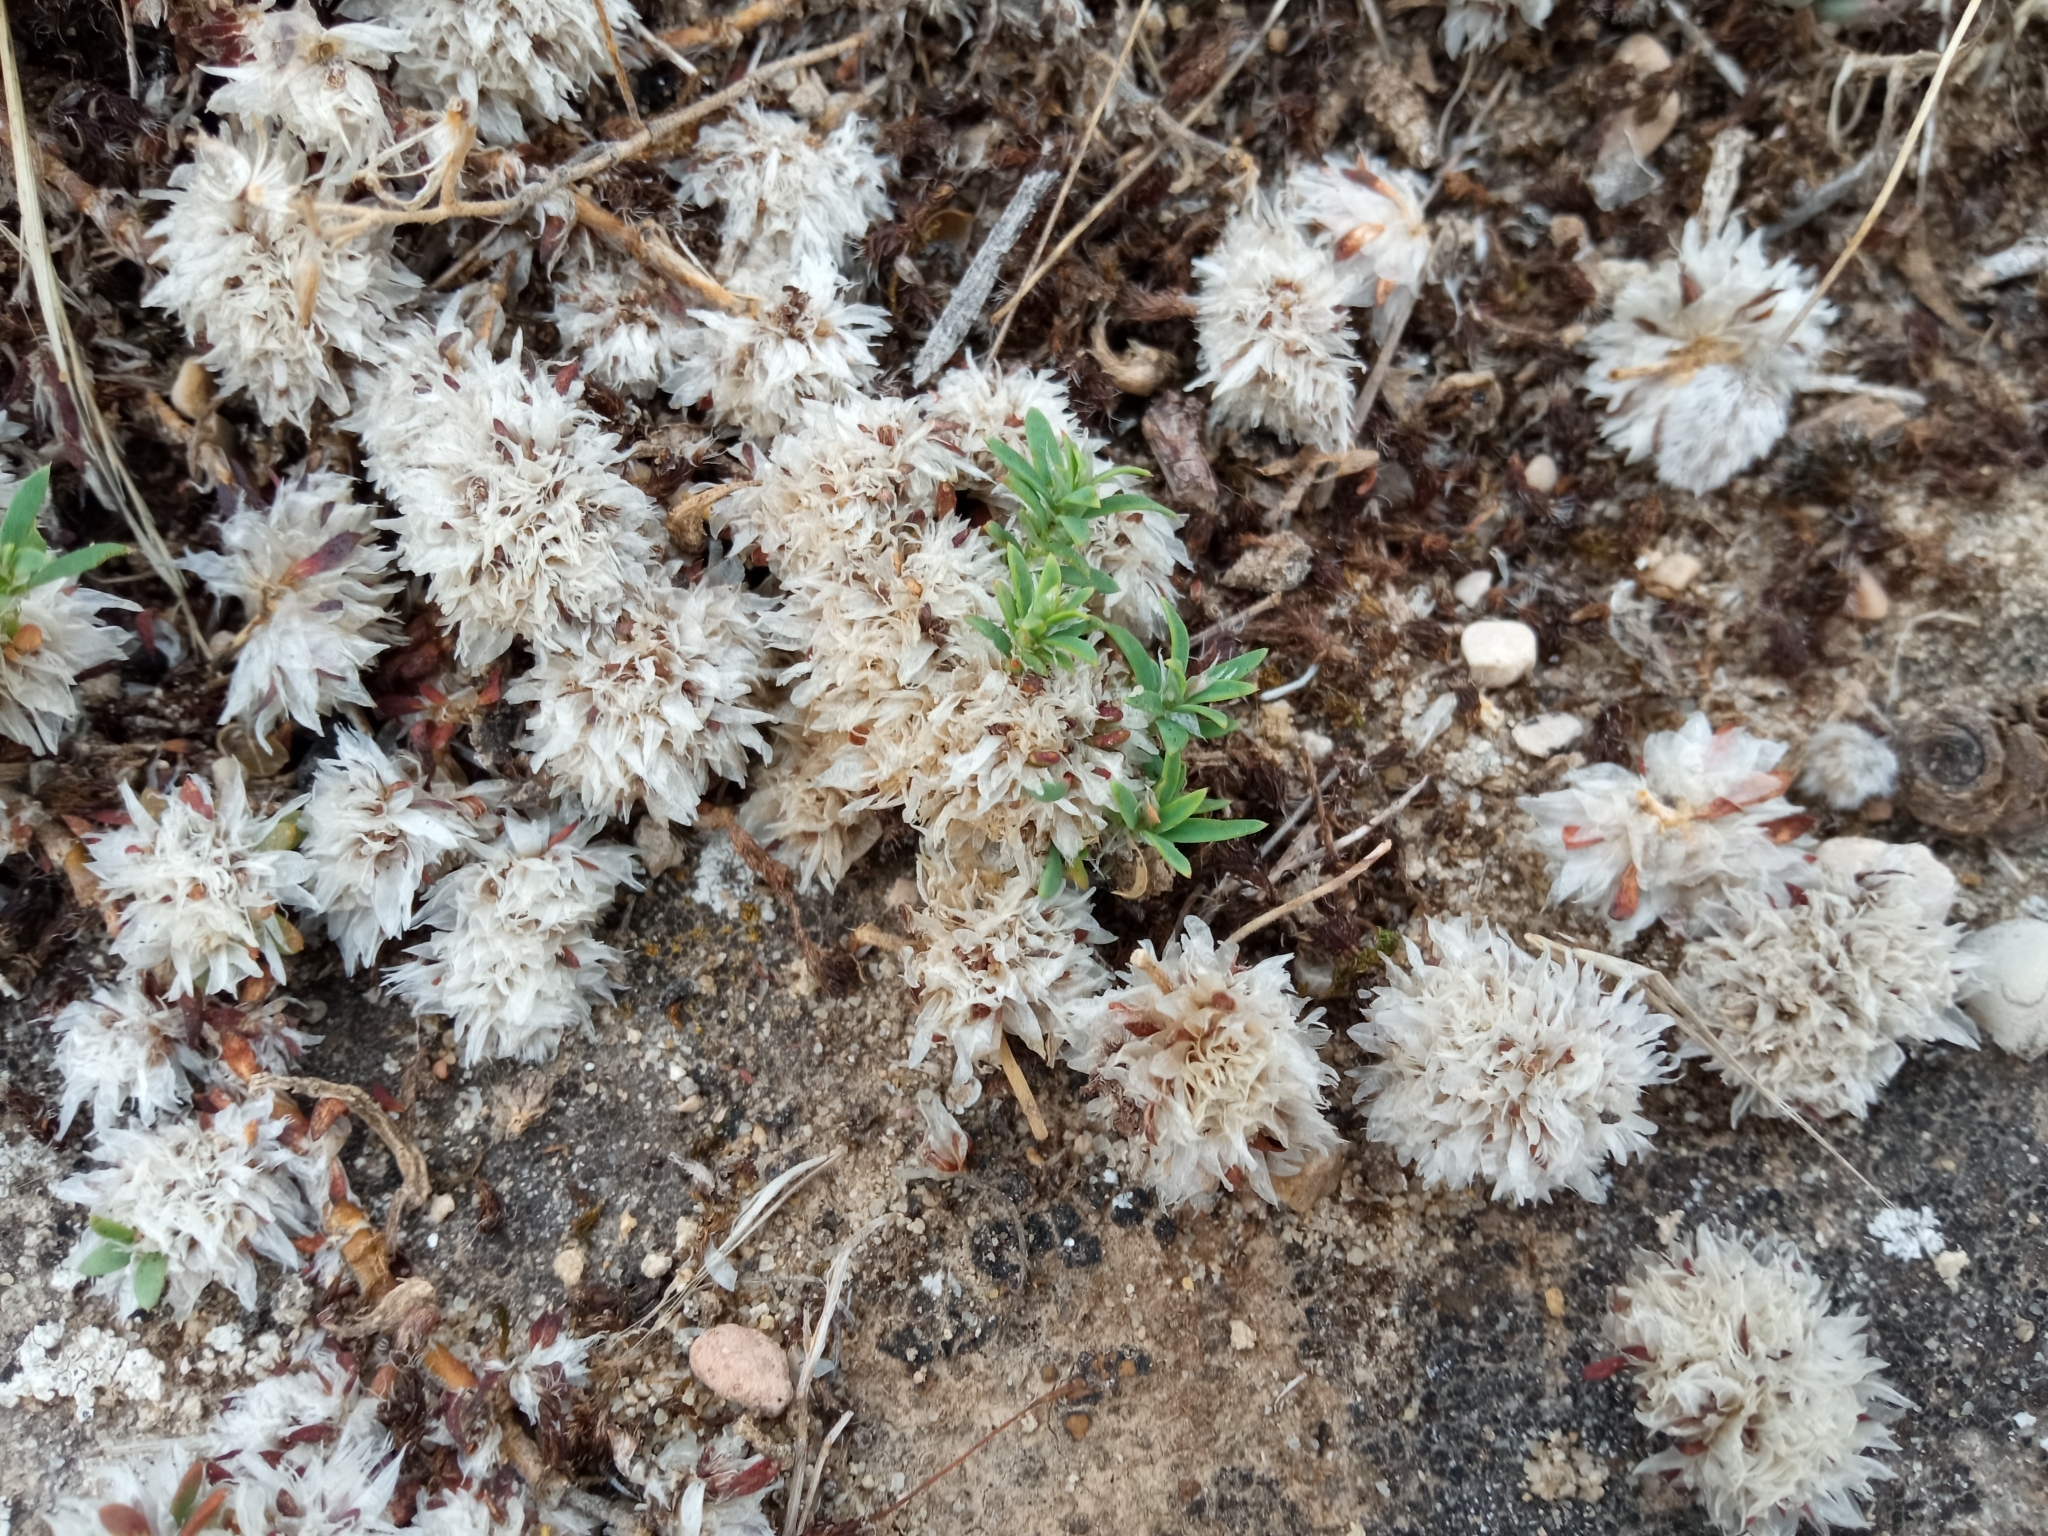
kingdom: Plantae
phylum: Tracheophyta
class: Magnoliopsida
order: Caryophyllales
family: Caryophyllaceae
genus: Paronychia
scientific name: Paronychia argentea
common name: Silver nailroot
